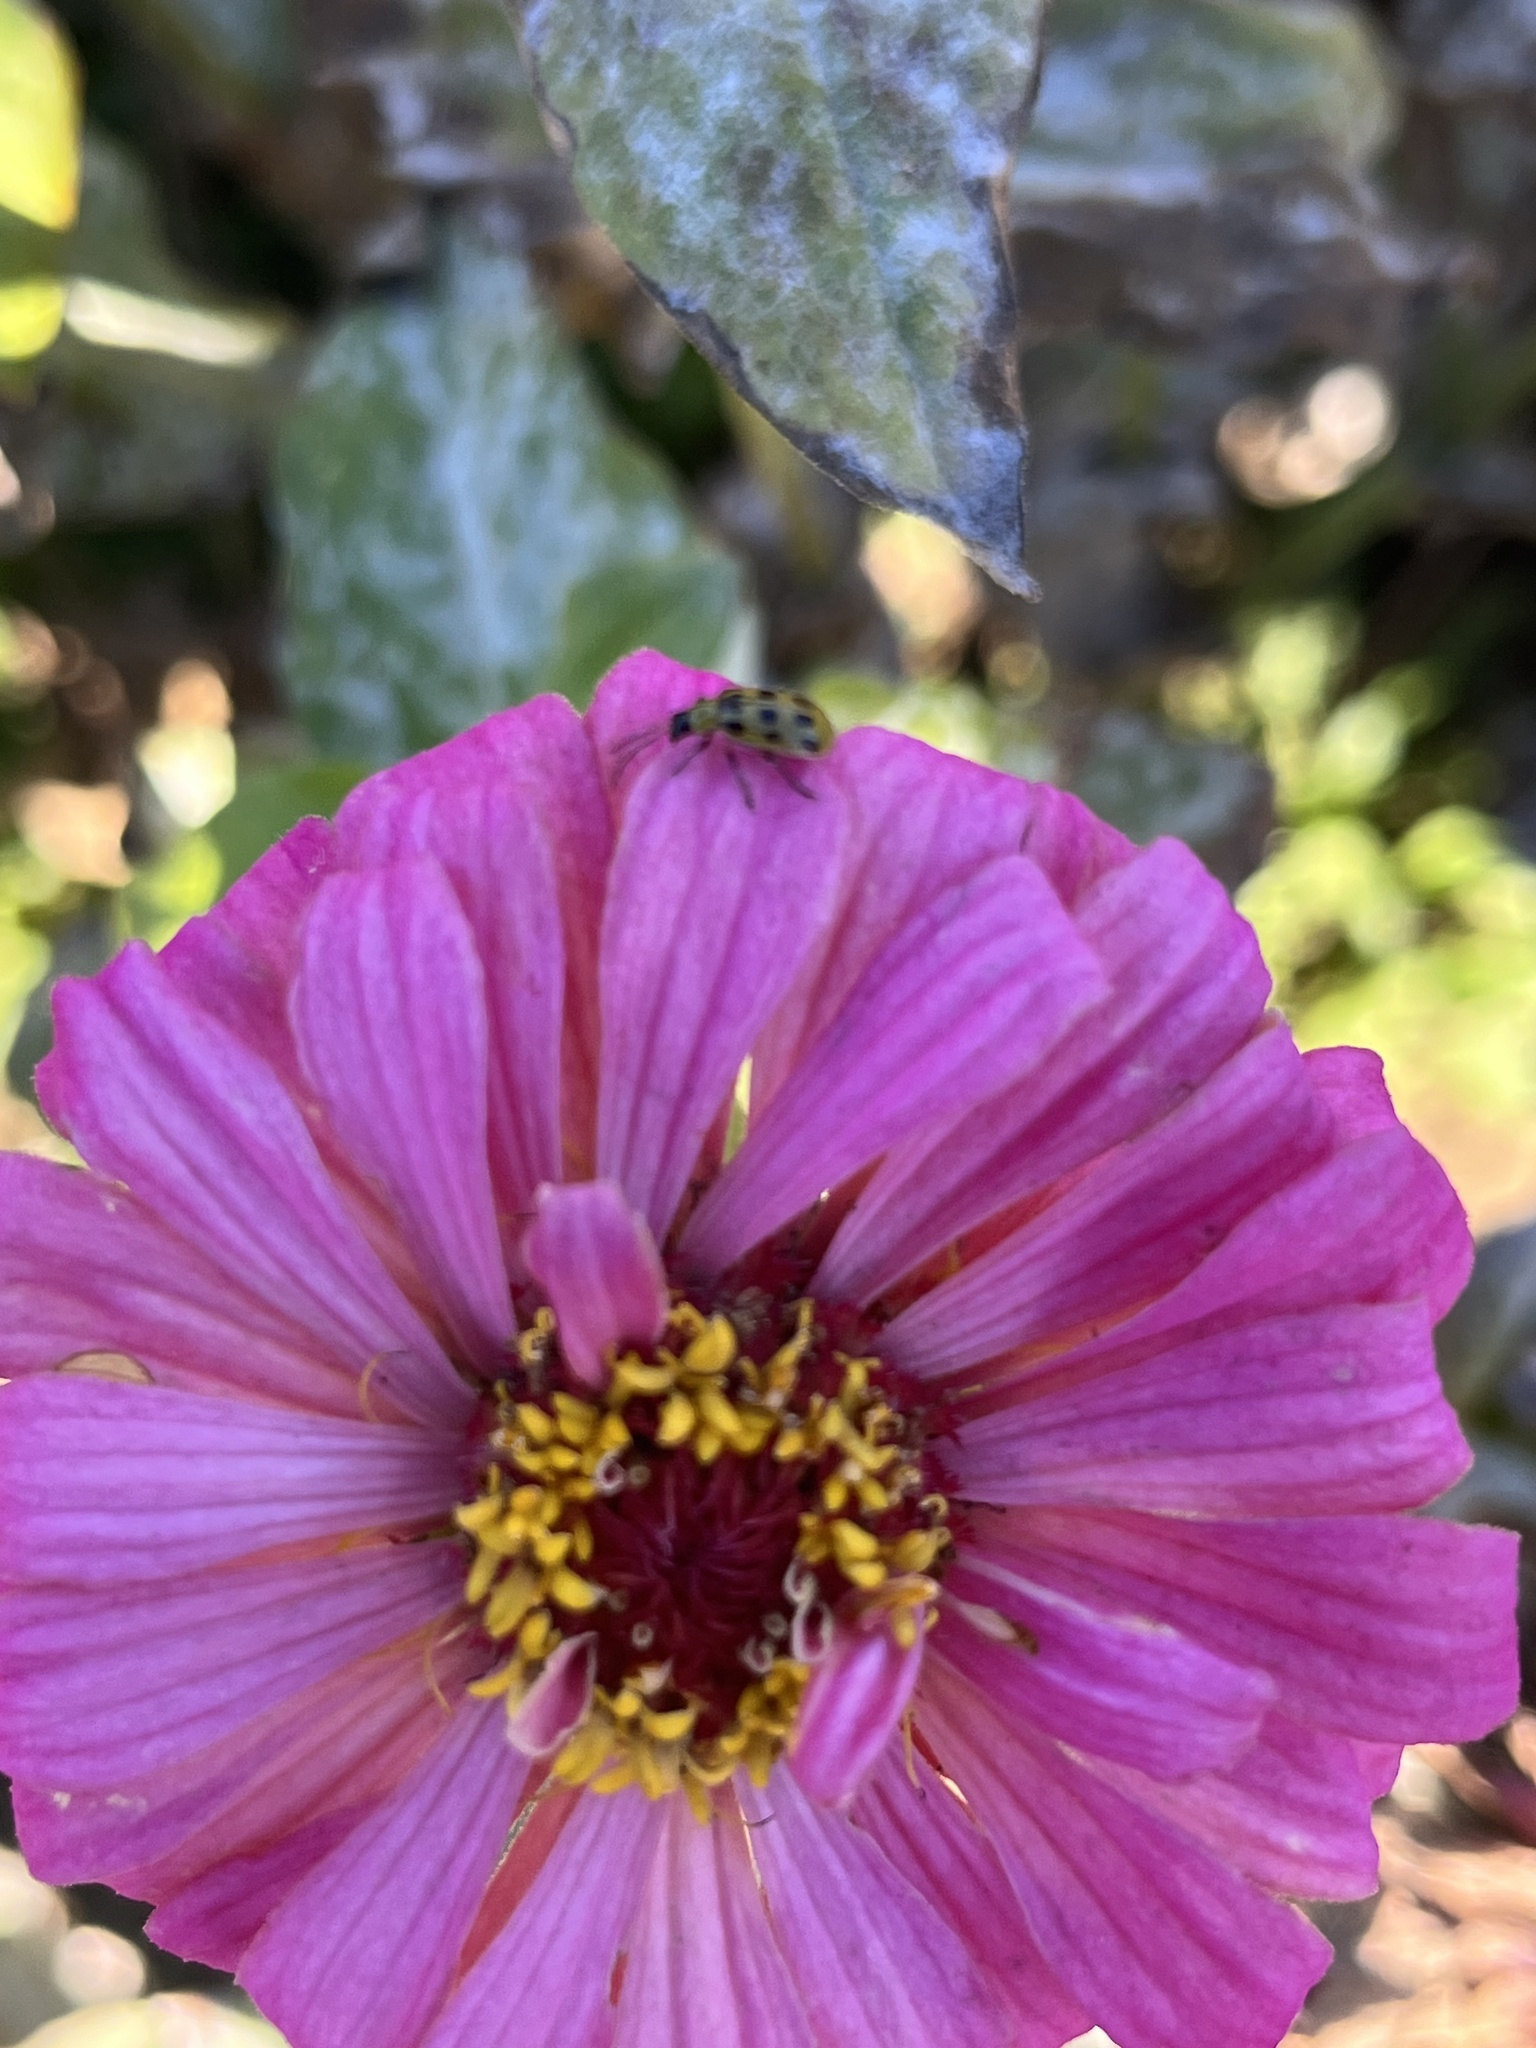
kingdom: Animalia
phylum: Arthropoda
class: Insecta
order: Coleoptera
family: Chrysomelidae
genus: Diabrotica
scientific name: Diabrotica undecimpunctata
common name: Spotted cucumber beetle
